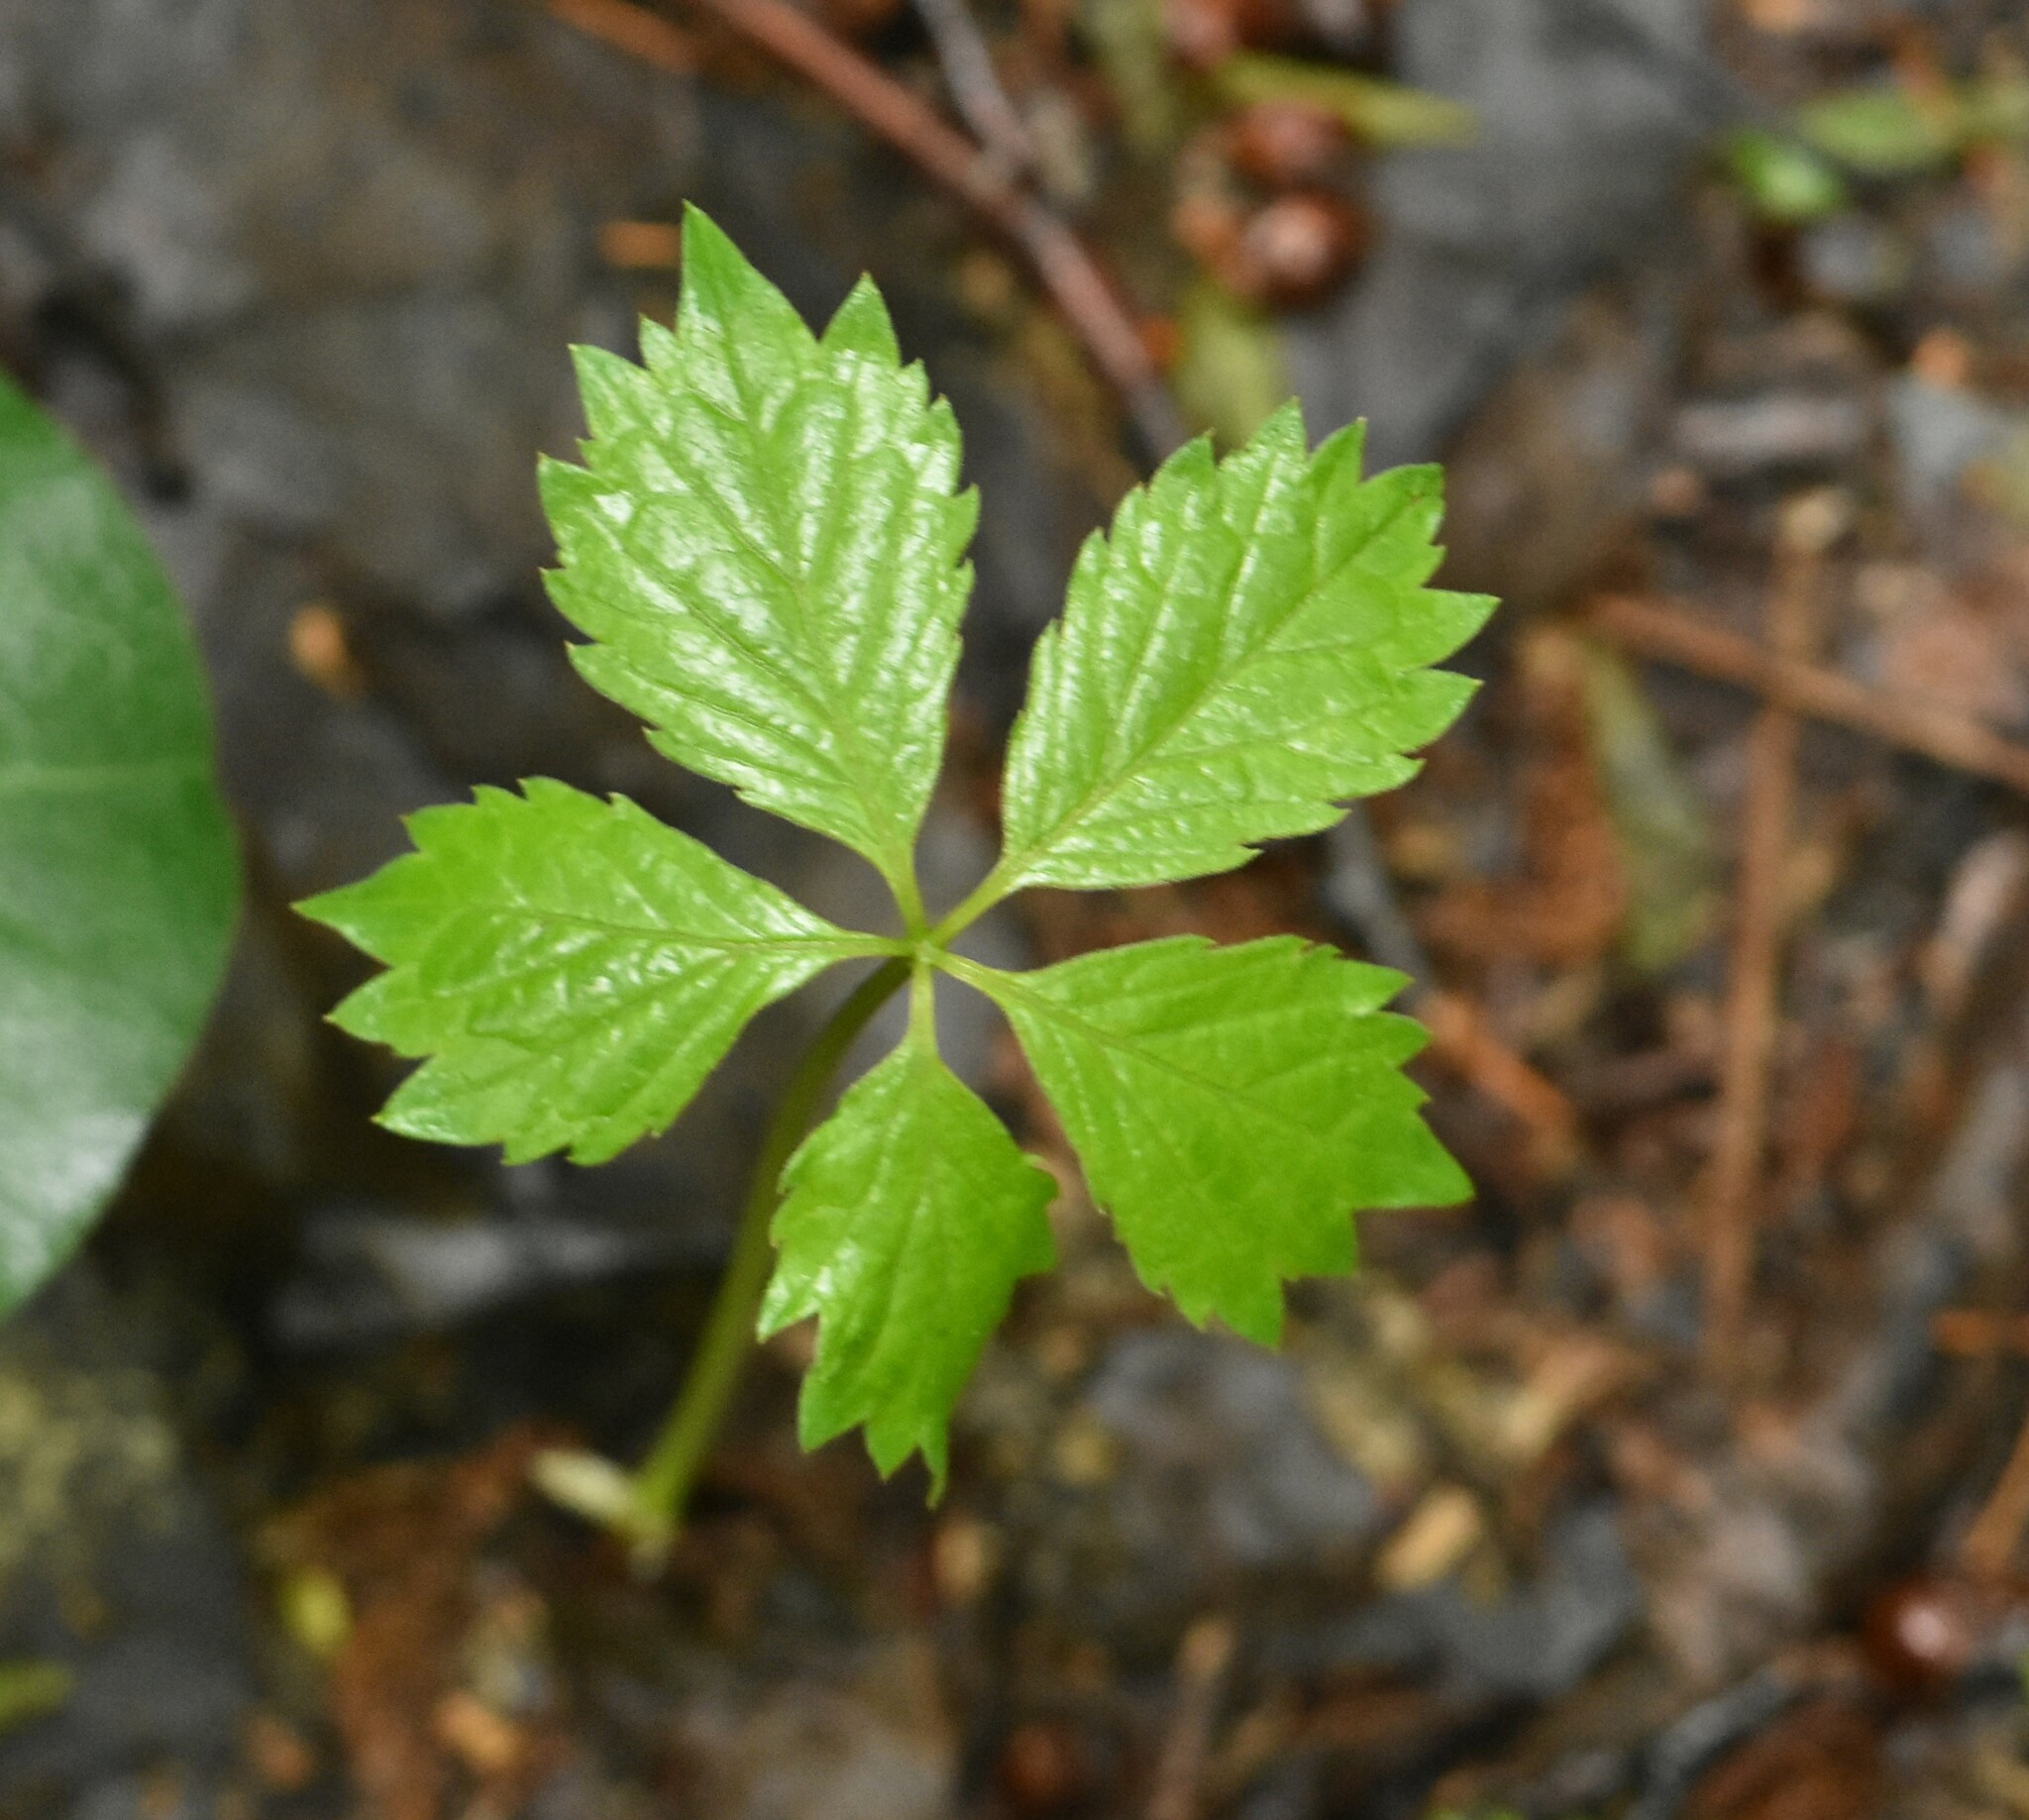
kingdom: Plantae
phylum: Tracheophyta
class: Magnoliopsida
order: Vitales
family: Vitaceae
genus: Parthenocissus
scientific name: Parthenocissus inserta
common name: False virginia-creeper
